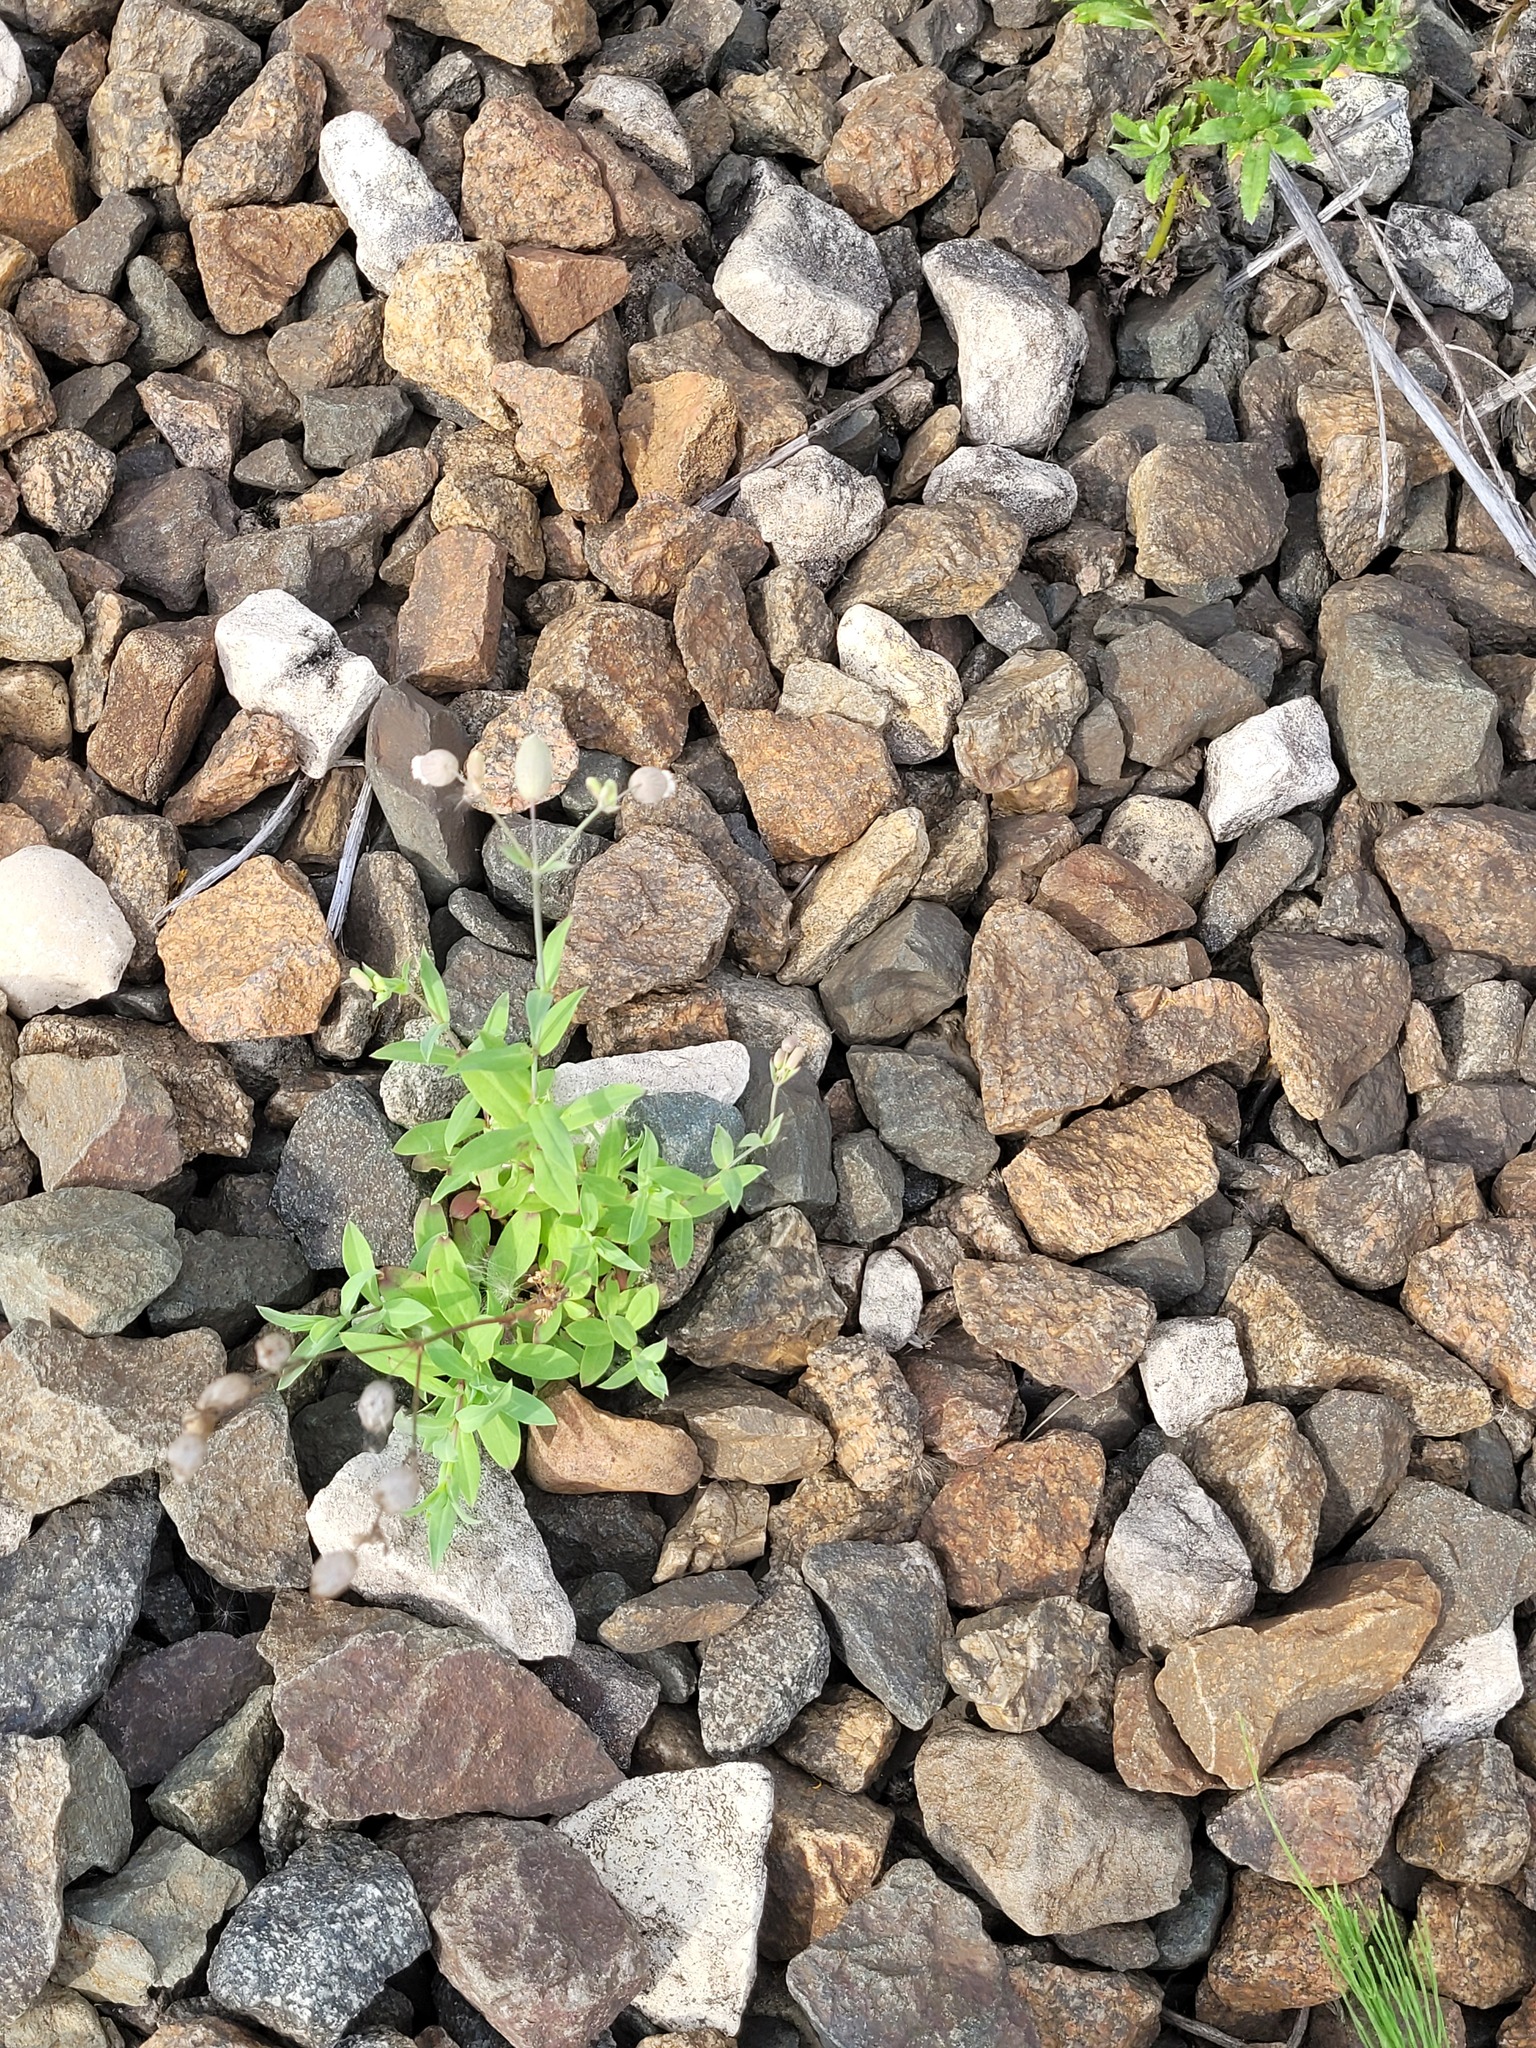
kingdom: Plantae
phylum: Tracheophyta
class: Magnoliopsida
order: Caryophyllales
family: Caryophyllaceae
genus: Silene
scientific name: Silene vulgaris
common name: Bladder campion
